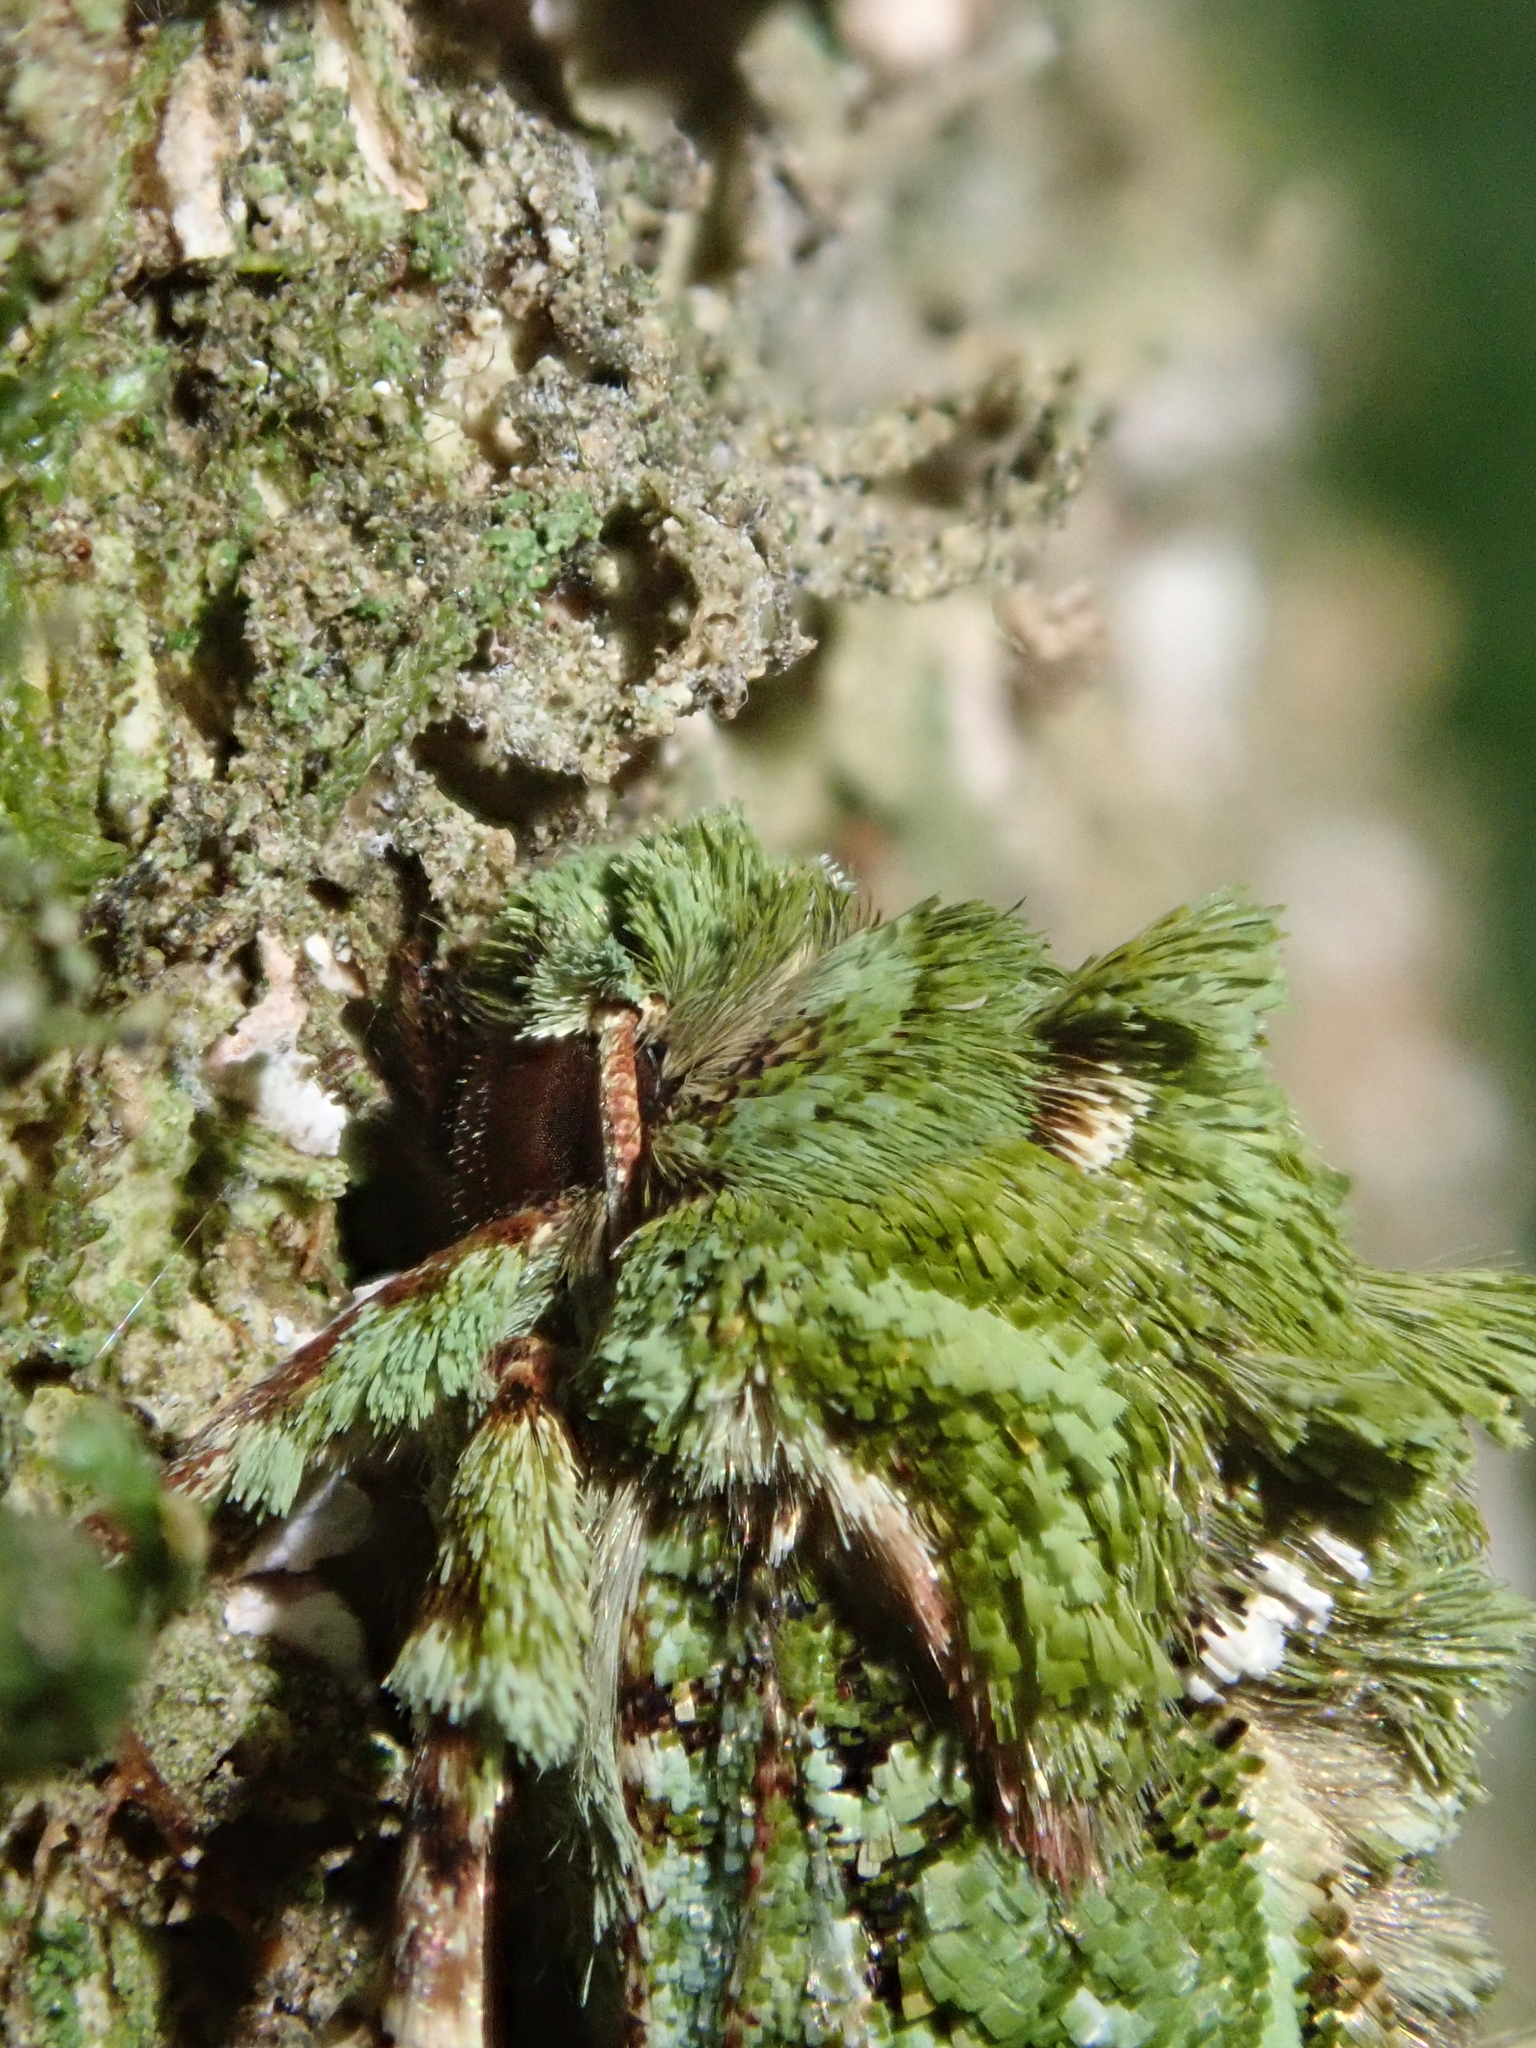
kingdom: Animalia
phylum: Arthropoda
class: Insecta
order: Lepidoptera
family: Noctuidae
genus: Feredayia
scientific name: Feredayia grammosa
